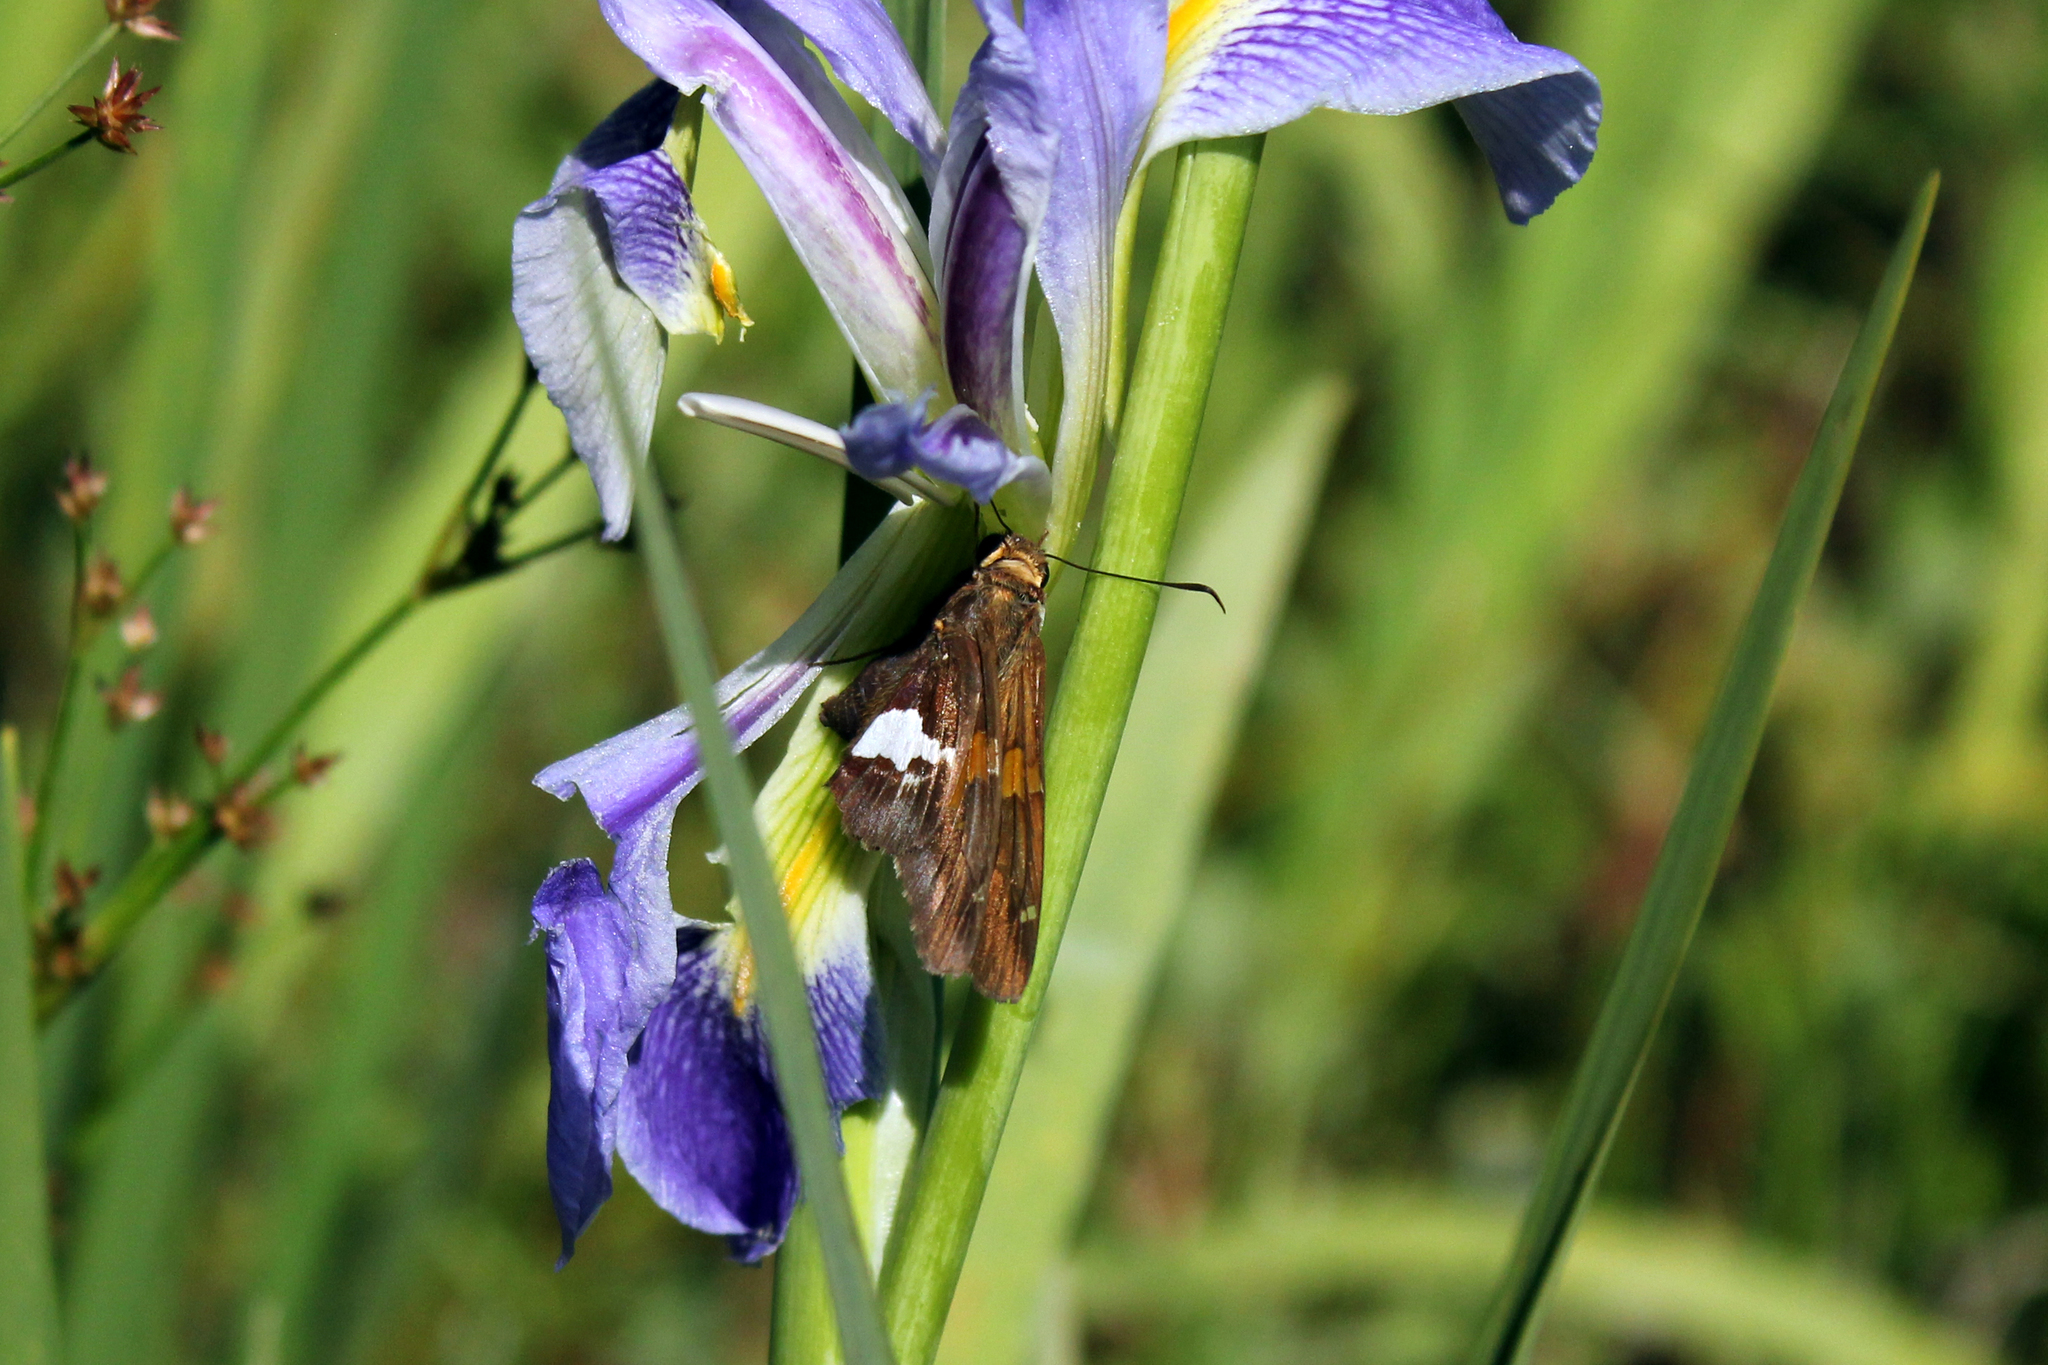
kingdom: Animalia
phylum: Arthropoda
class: Insecta
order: Lepidoptera
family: Hesperiidae
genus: Epargyreus
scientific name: Epargyreus clarus
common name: Silver-spotted skipper
